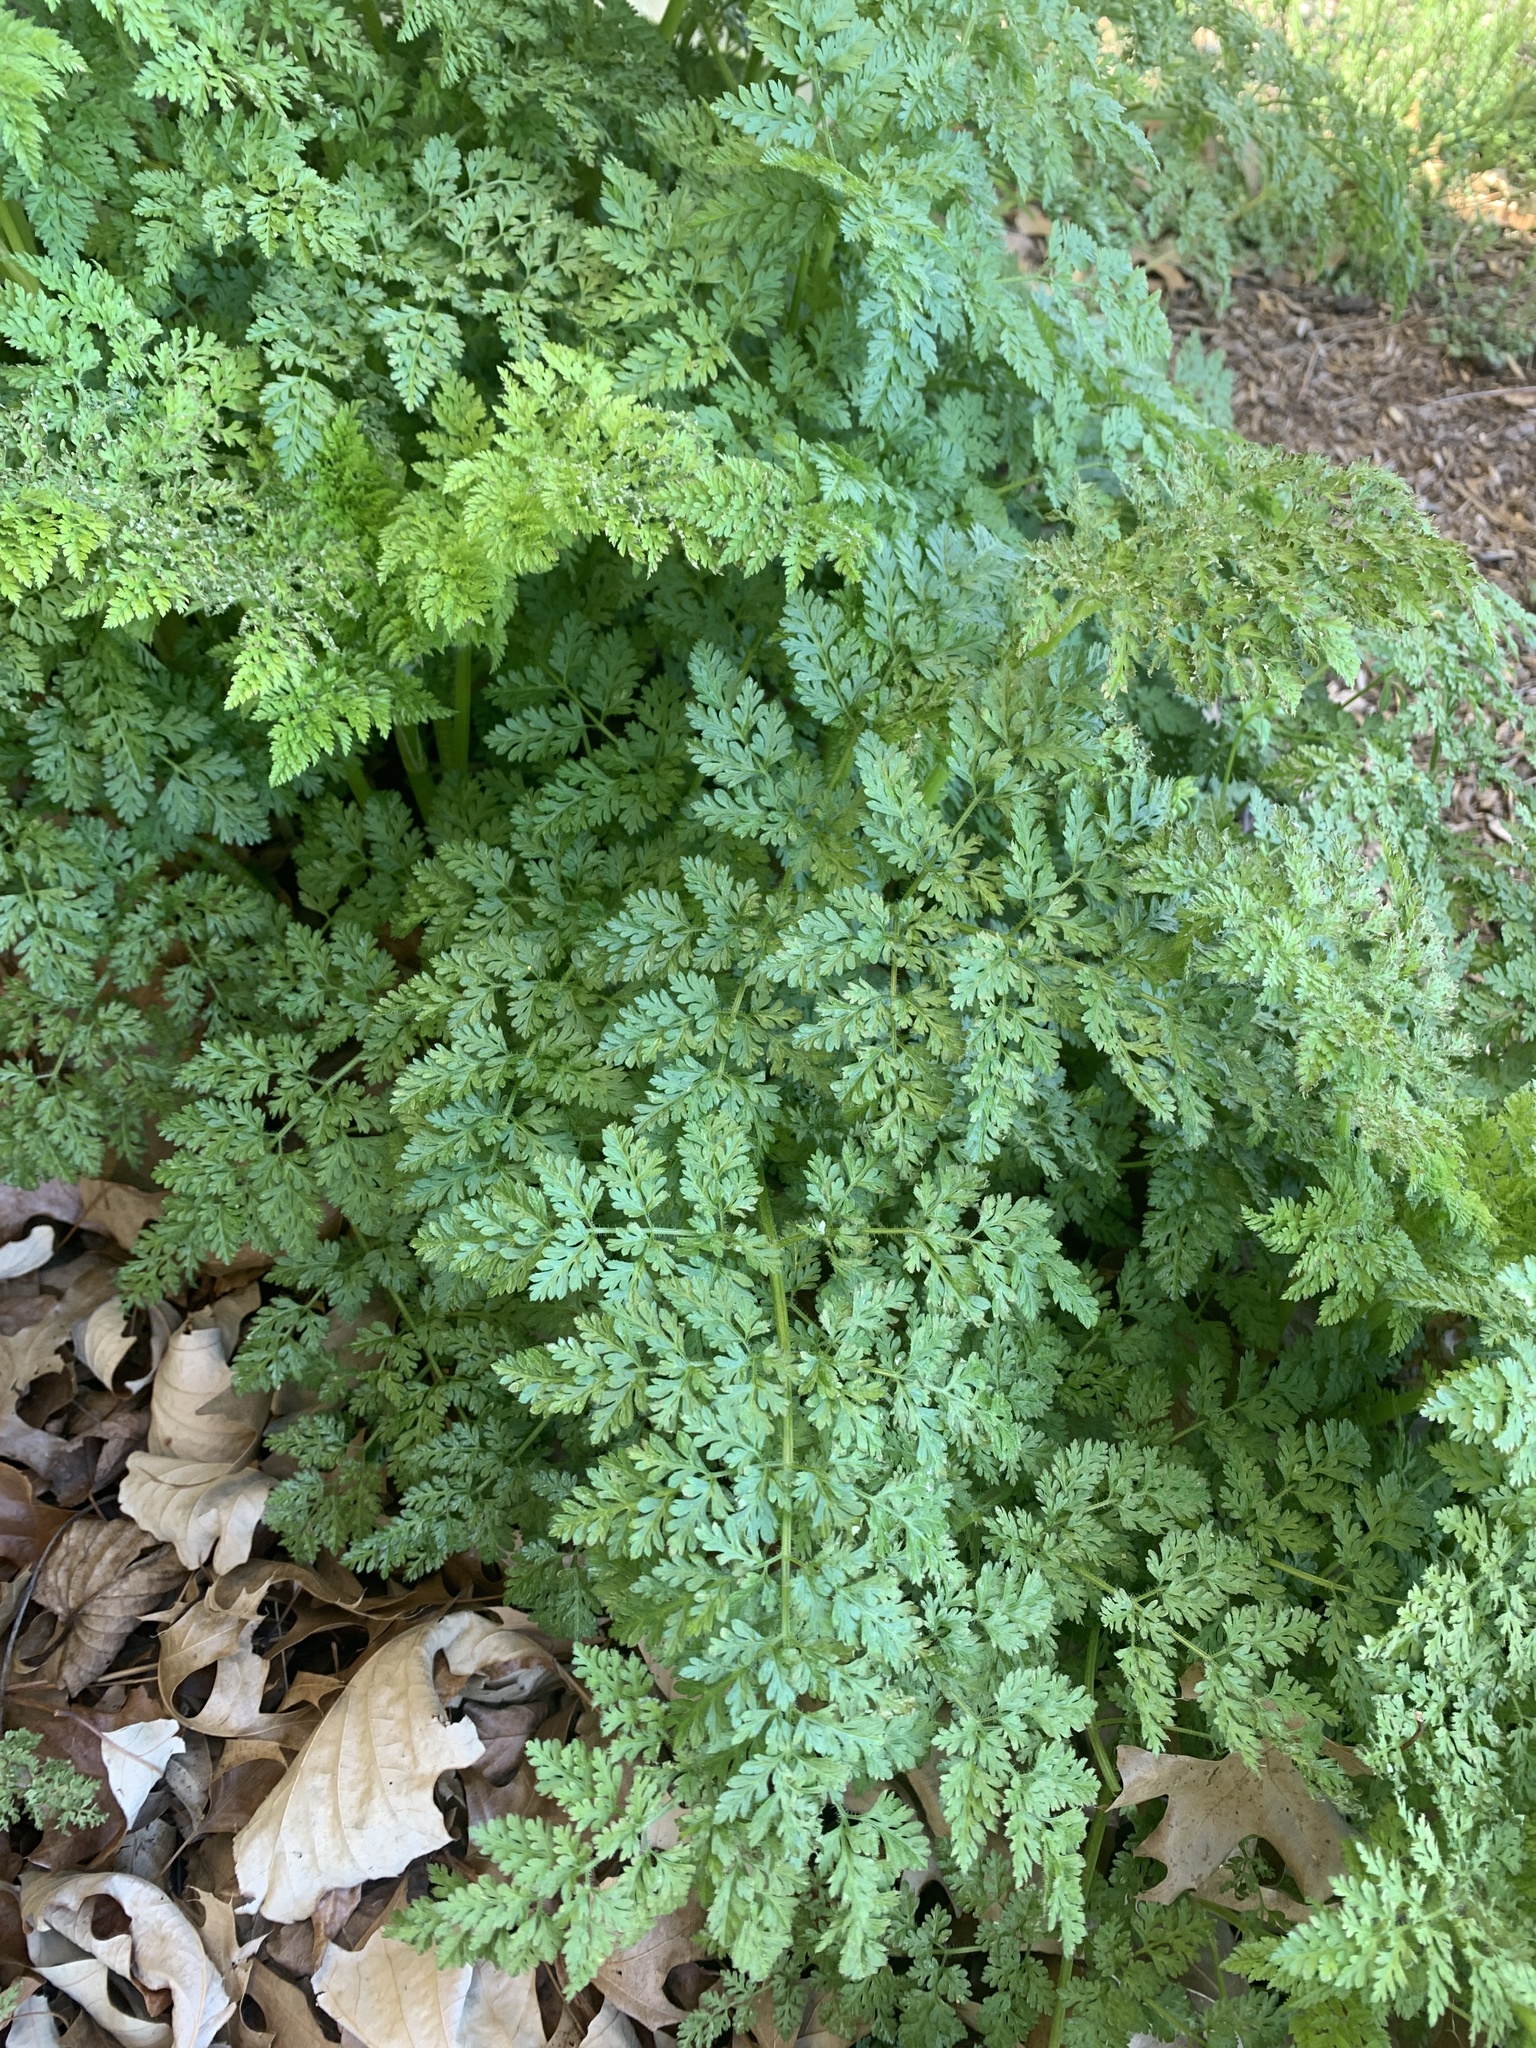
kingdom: Plantae
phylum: Tracheophyta
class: Magnoliopsida
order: Apiales
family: Apiaceae
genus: Conium
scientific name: Conium maculatum
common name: Hemlock
